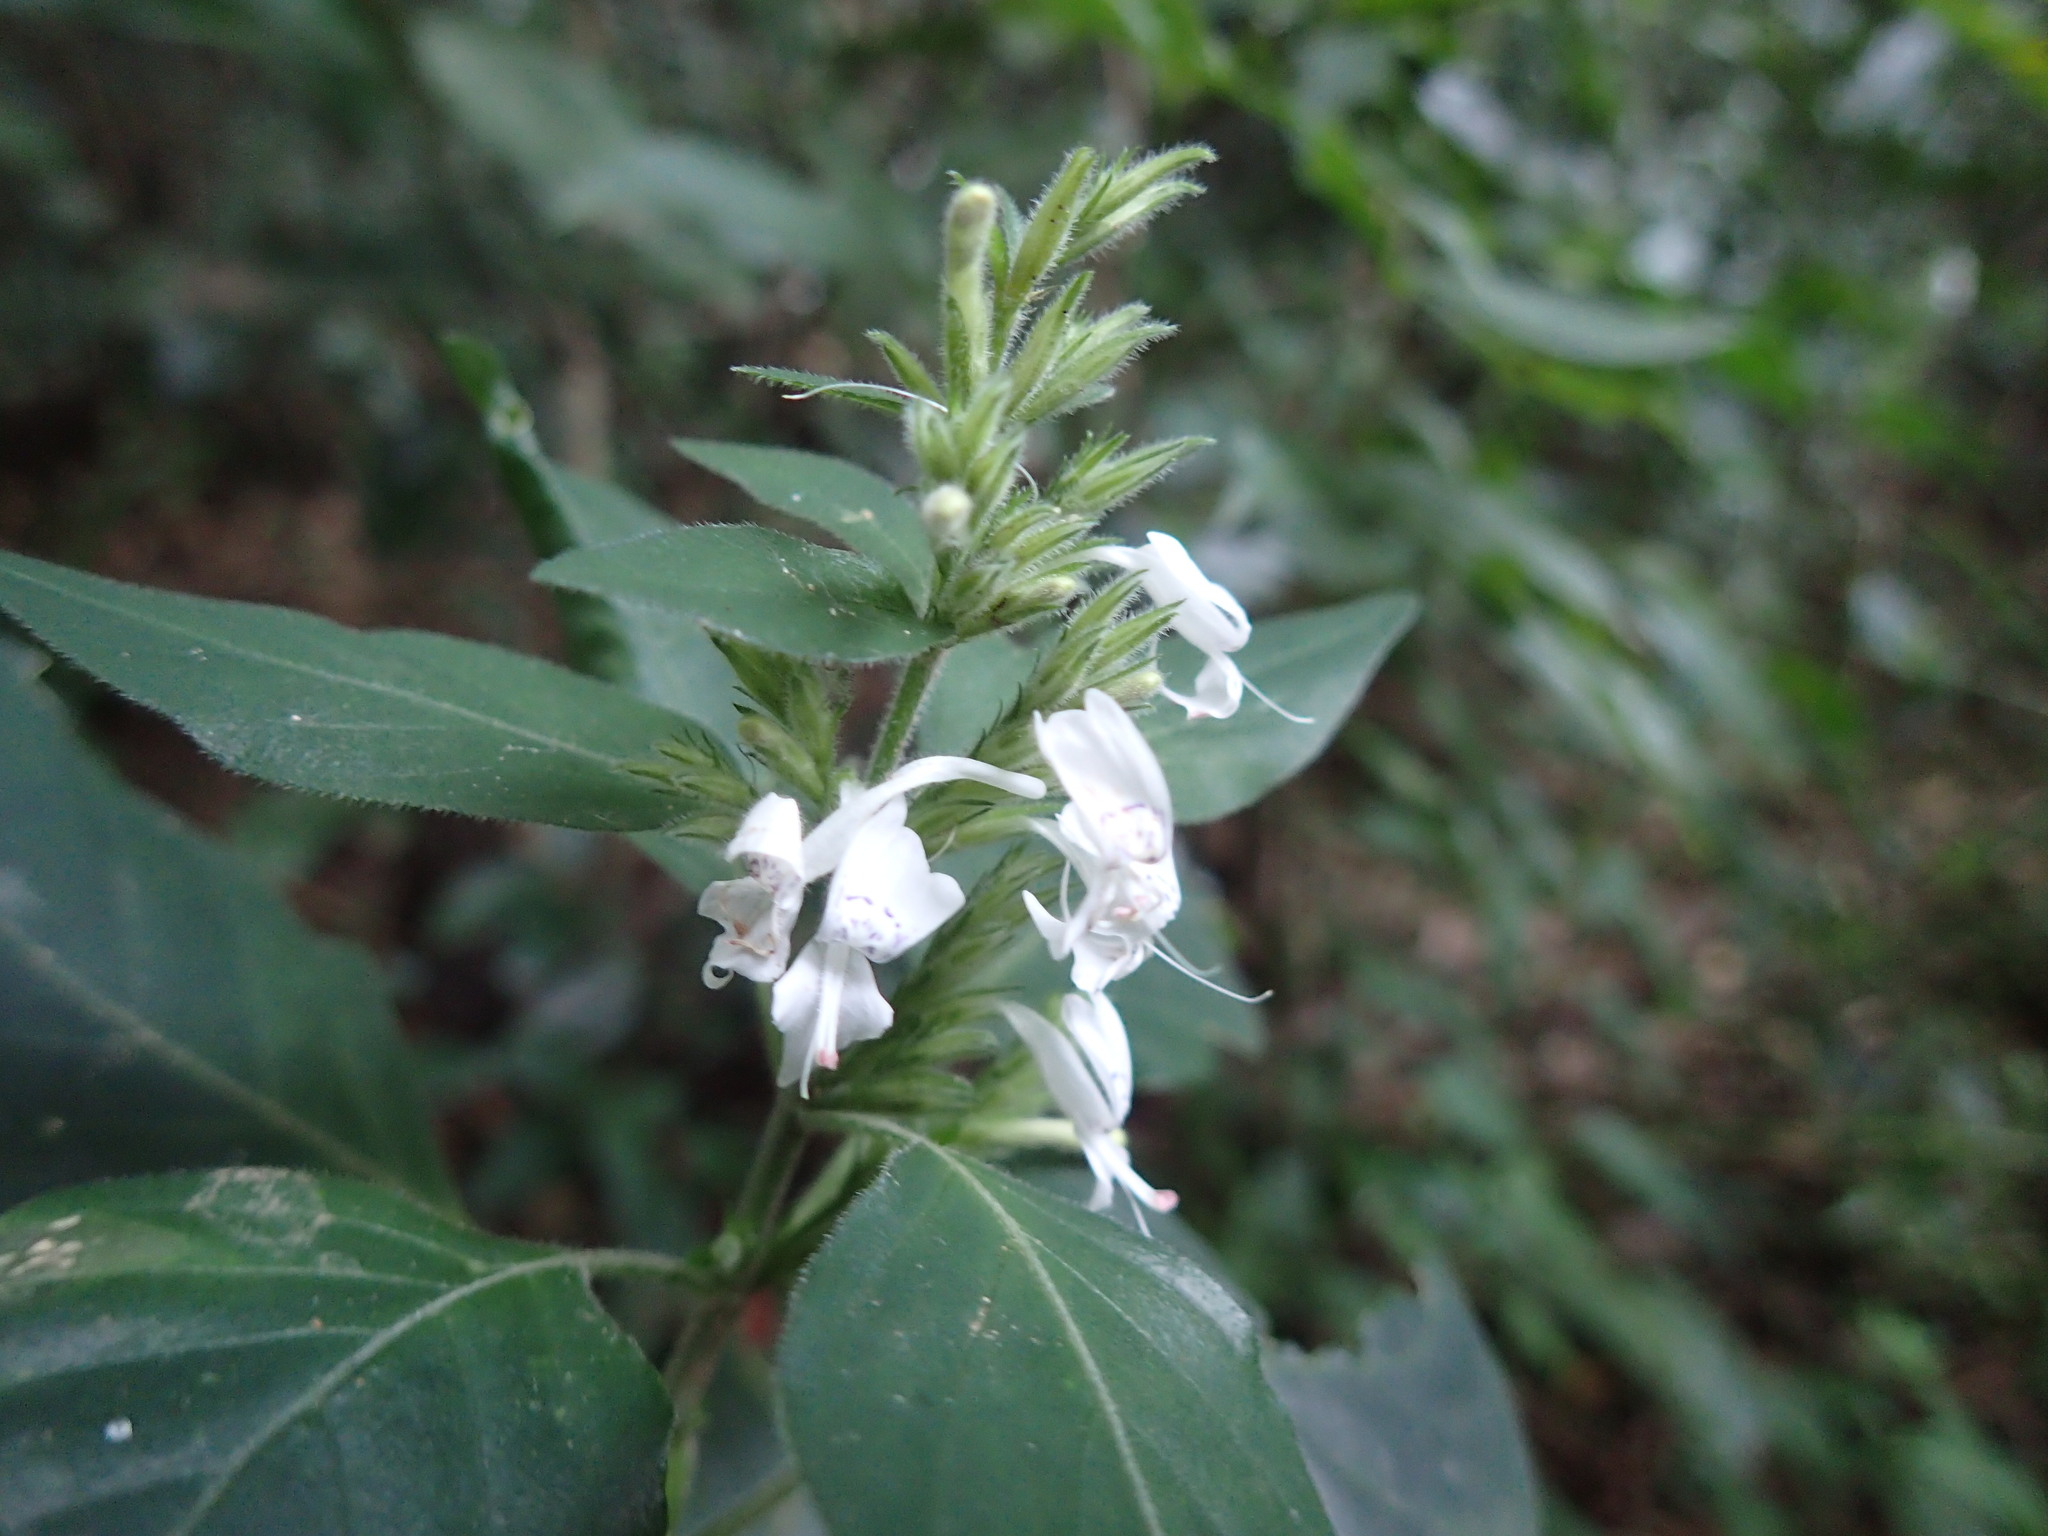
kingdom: Plantae
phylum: Tracheophyta
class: Magnoliopsida
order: Lamiales
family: Acanthaceae
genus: Hypoestes
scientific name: Hypoestes forskaolii
